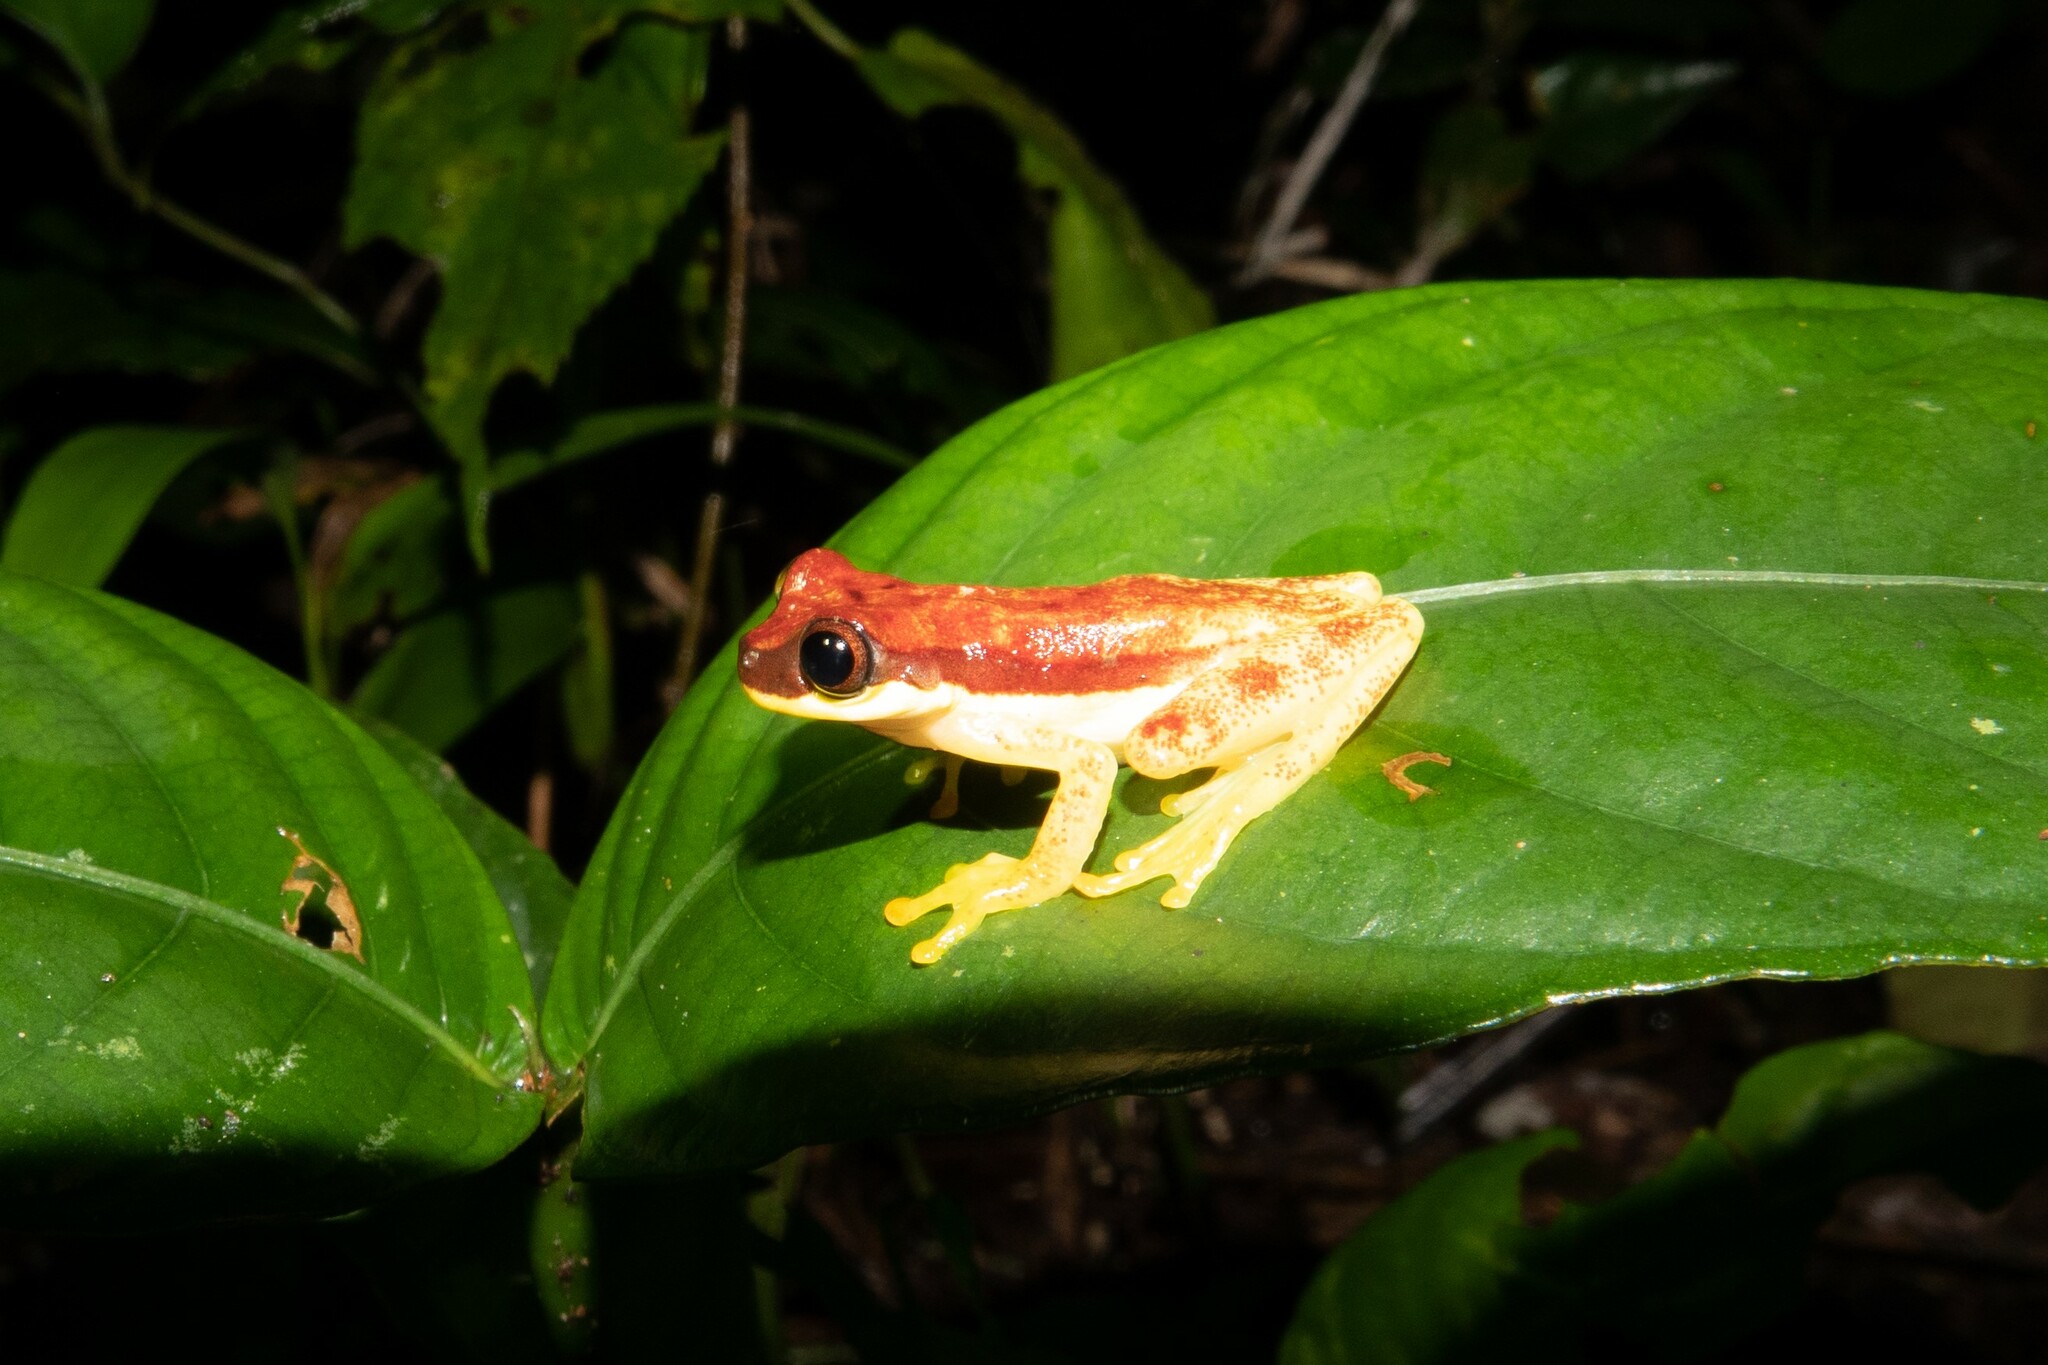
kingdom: Animalia
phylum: Chordata
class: Amphibia
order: Anura
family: Hylidae
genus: Dendropsophus
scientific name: Dendropsophus rhodopeplus
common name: Red-skirted treefrog
